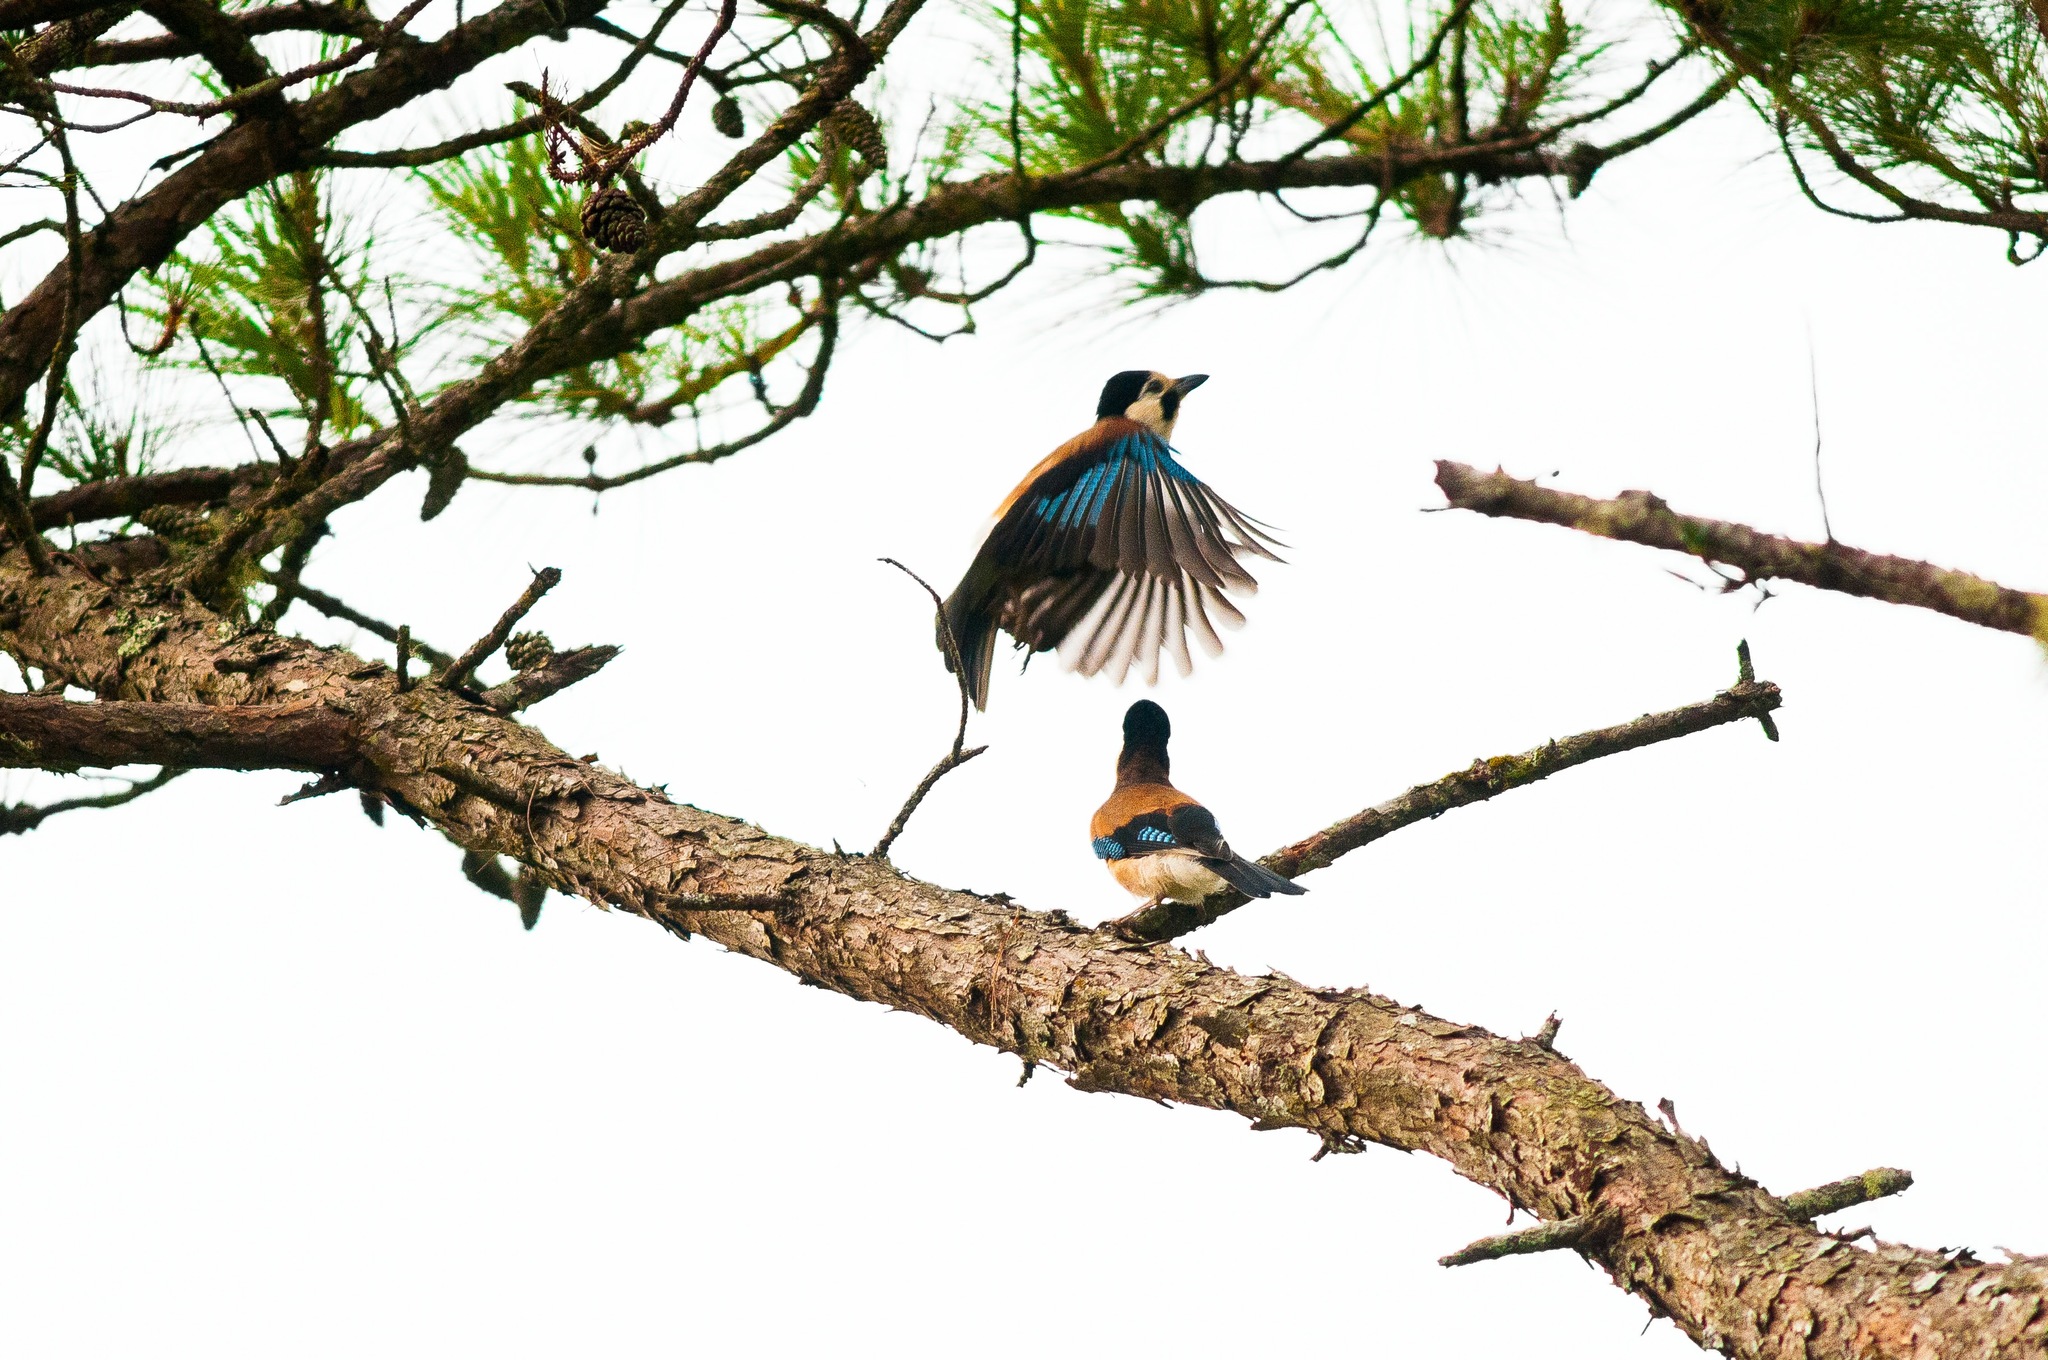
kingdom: Animalia
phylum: Chordata
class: Aves
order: Passeriformes
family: Corvidae
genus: Garrulus
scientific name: Garrulus glandarius
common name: Eurasian jay
